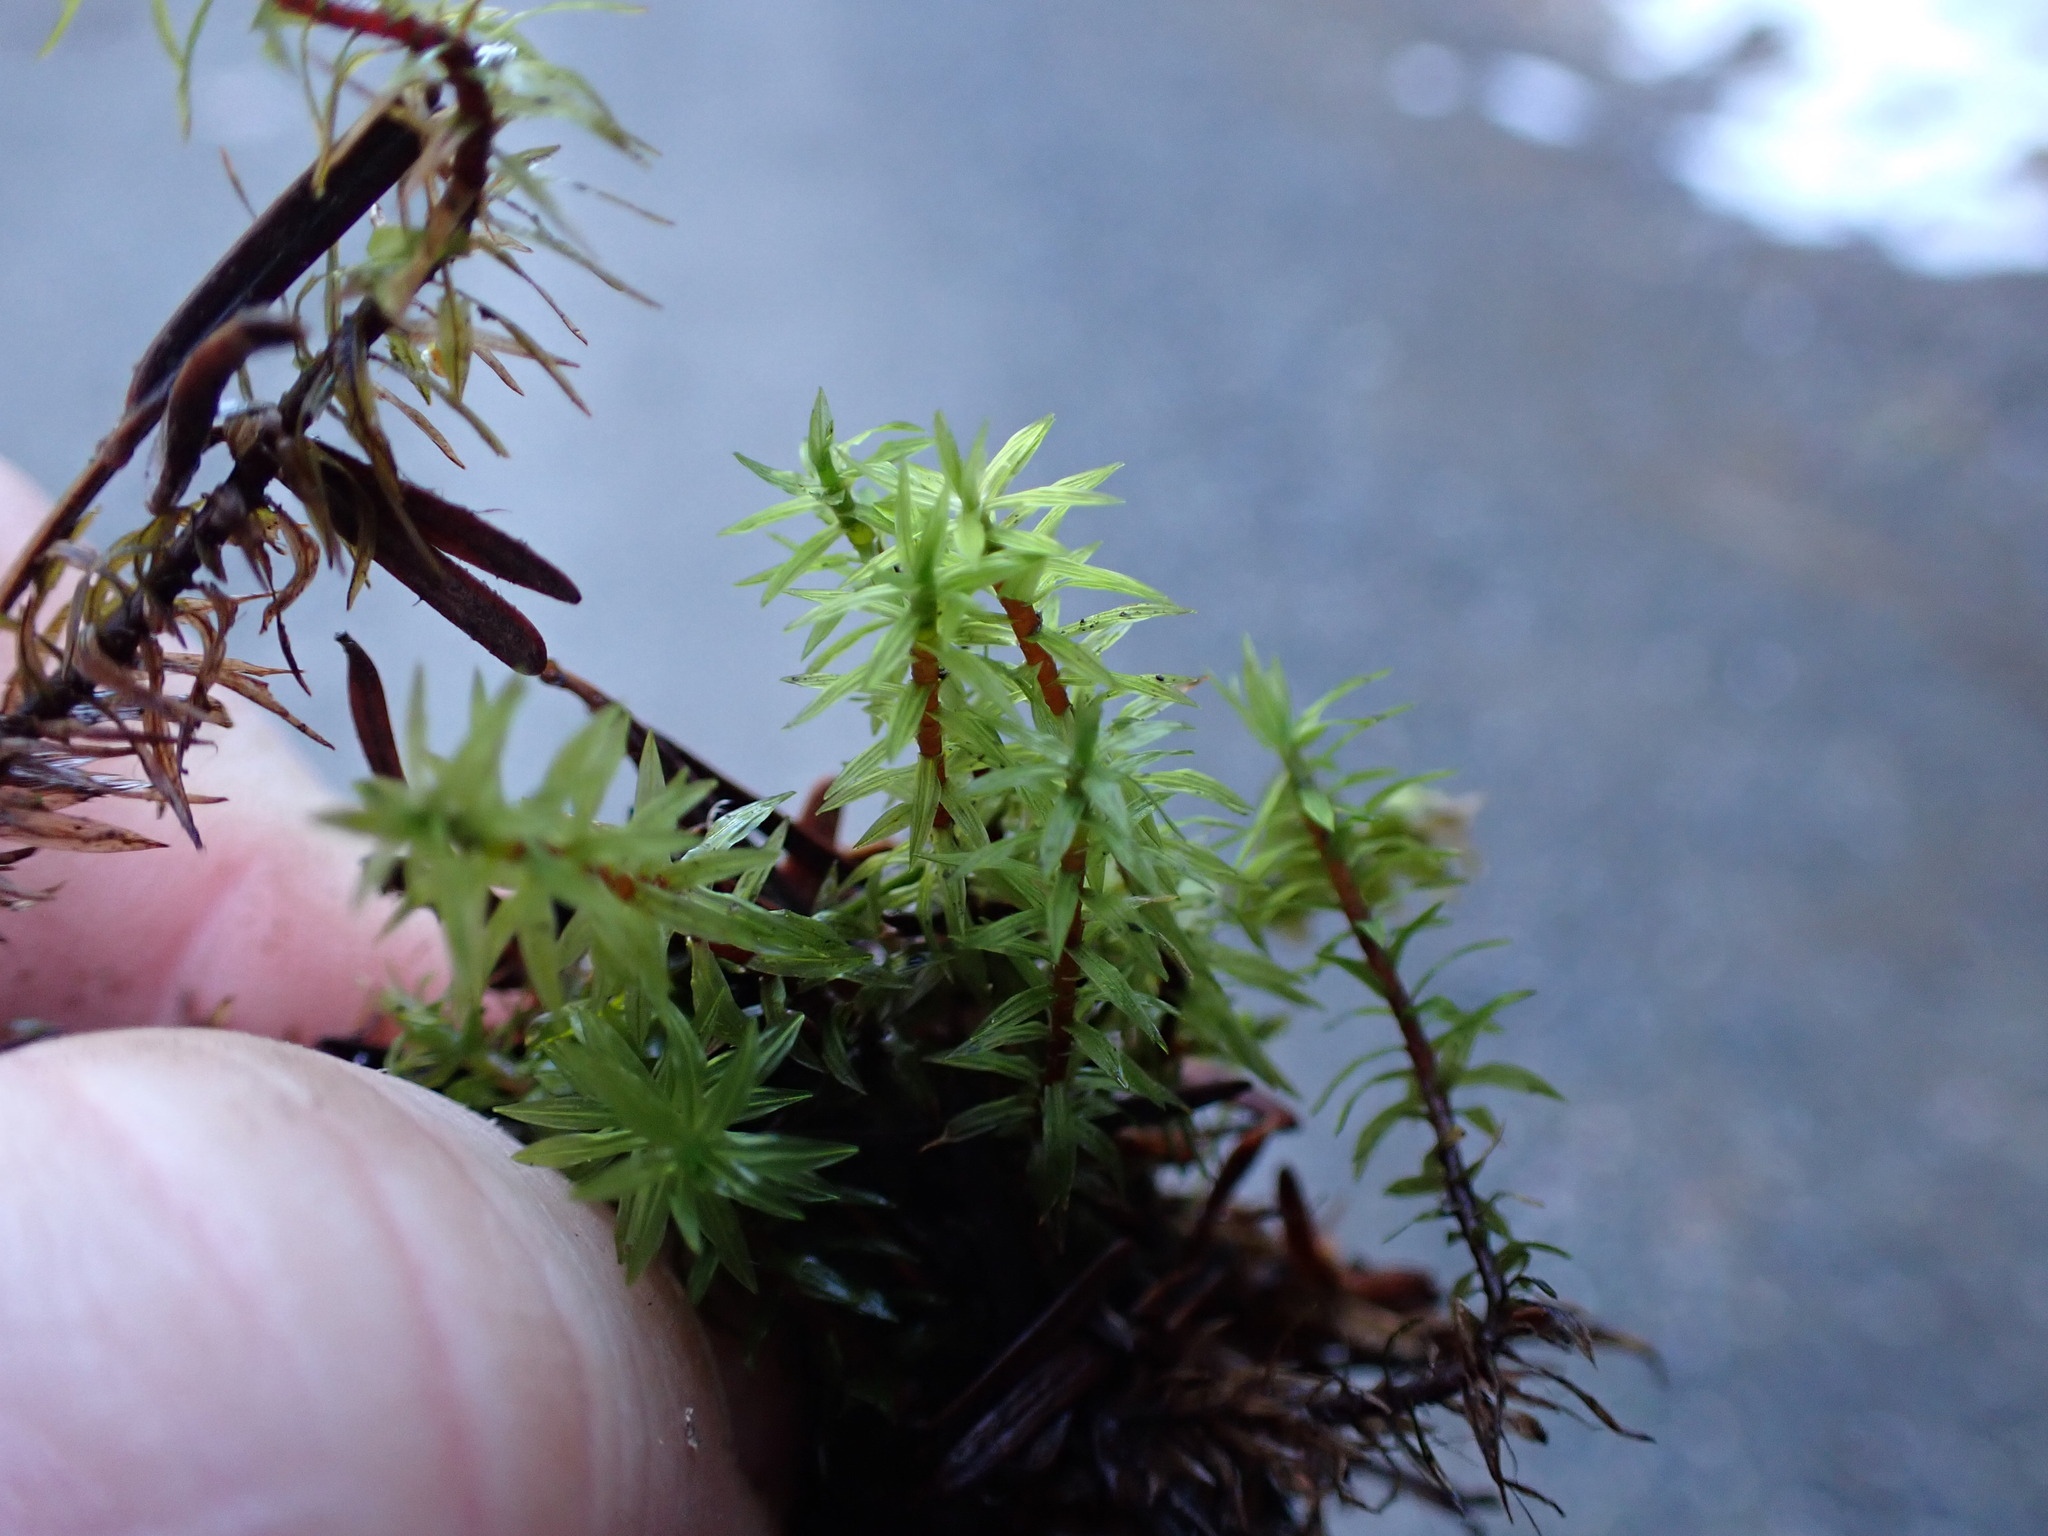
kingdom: Plantae
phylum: Bryophyta
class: Bryopsida
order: Timmiales
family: Timmiaceae
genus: Timmia
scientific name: Timmia austriaca
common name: Austrian timmia
